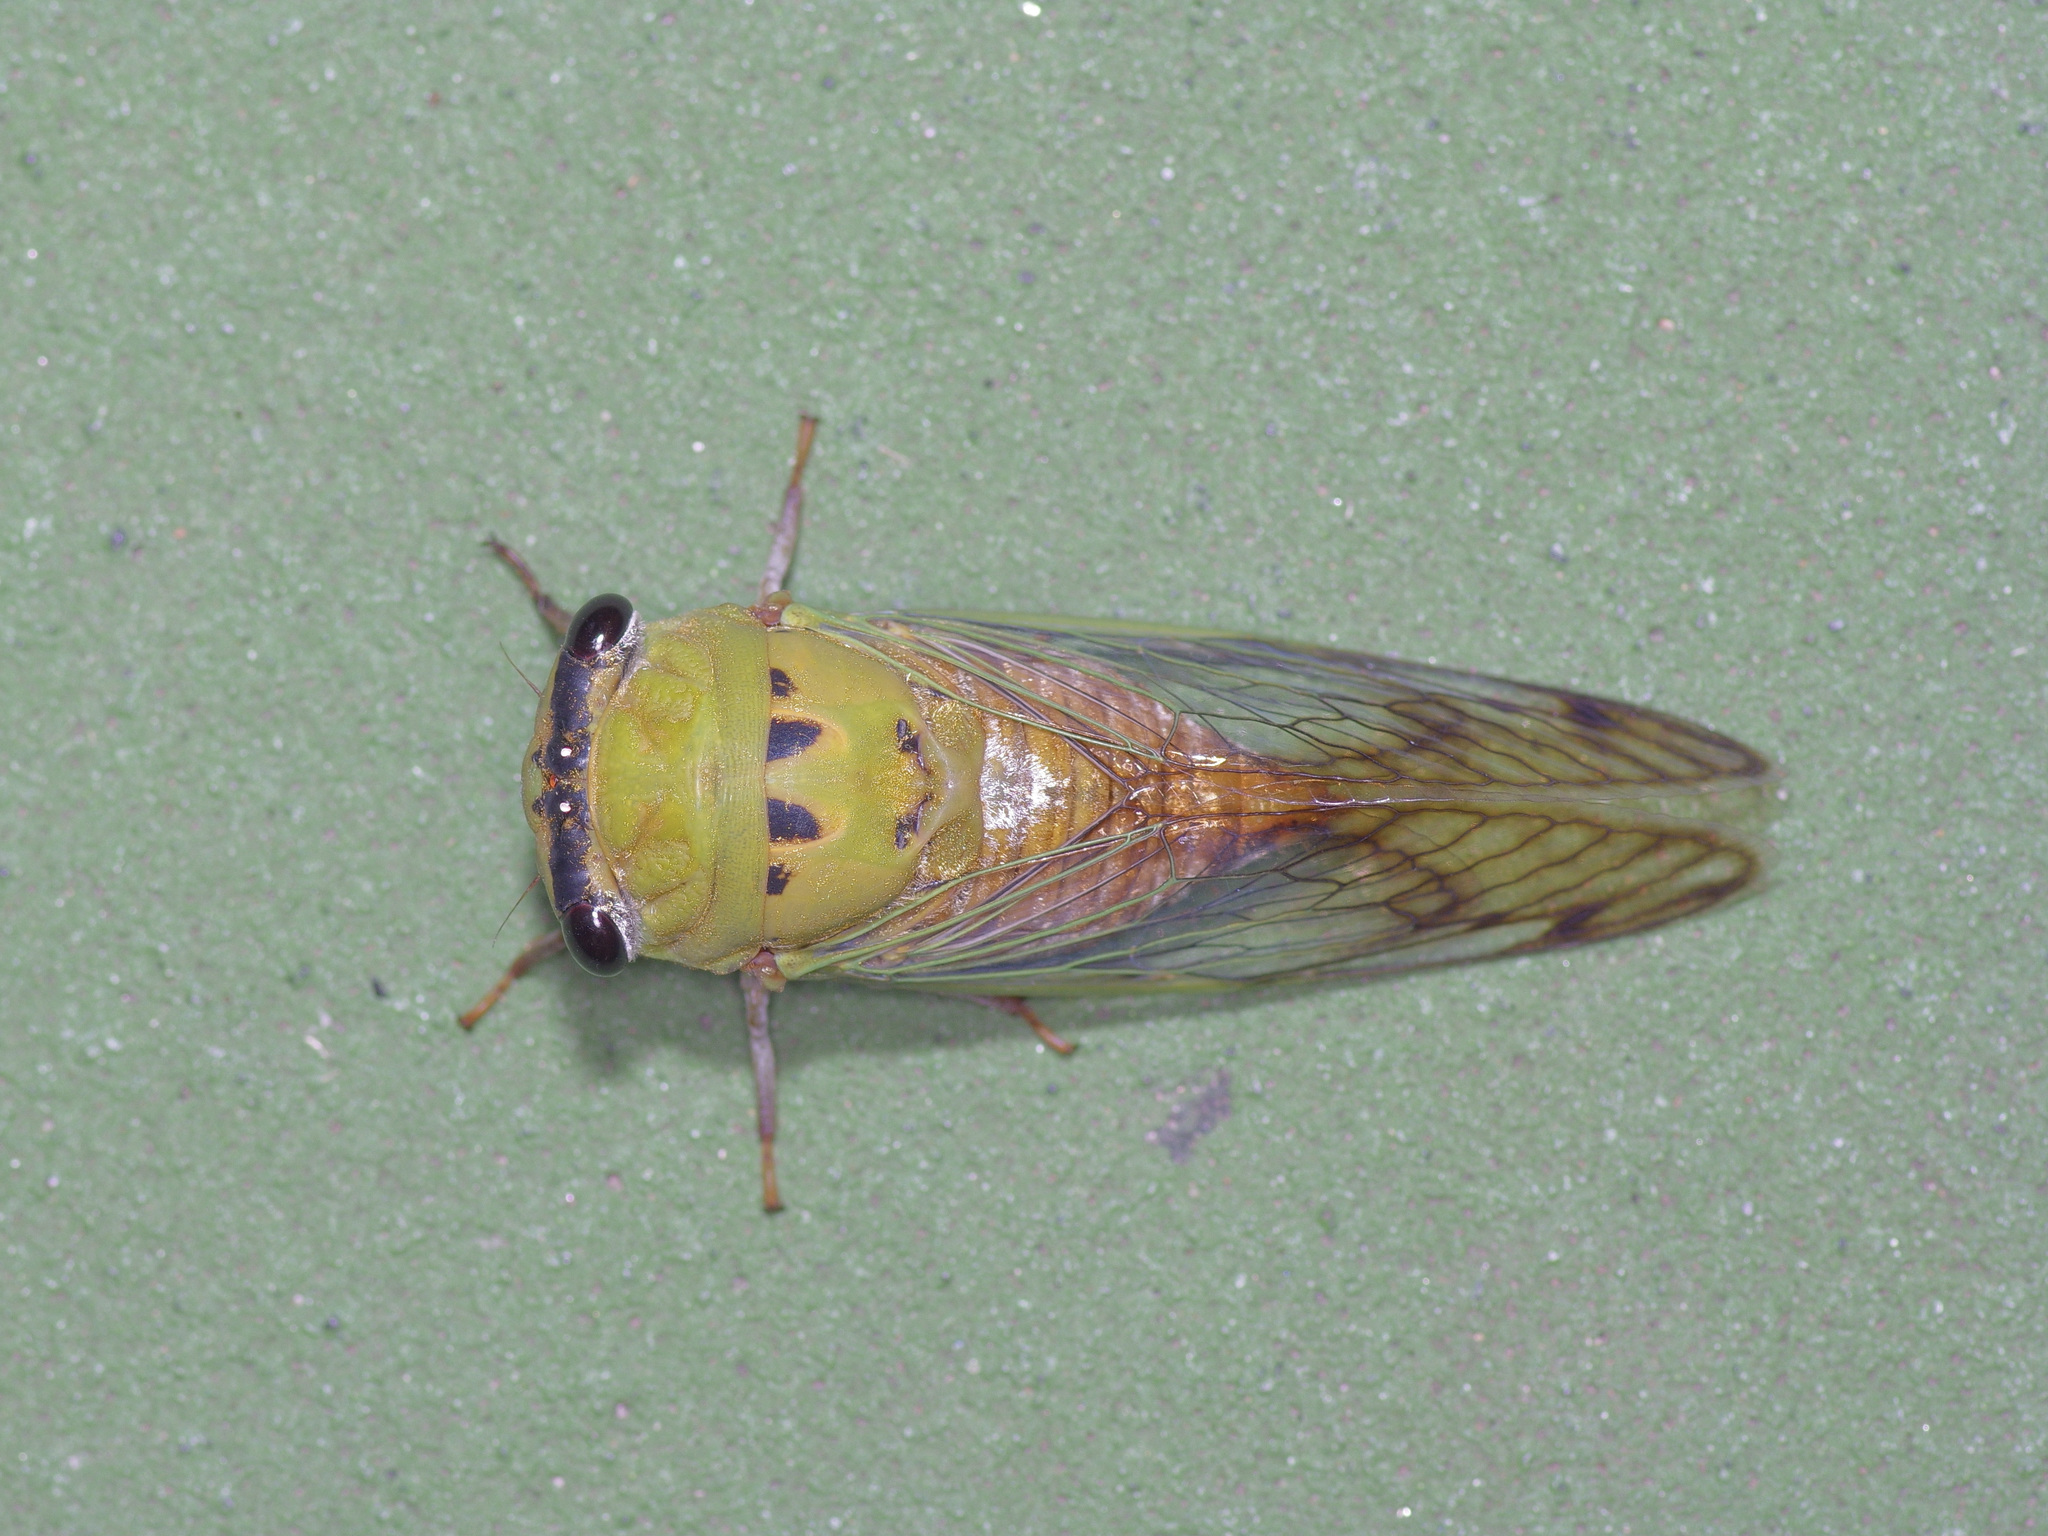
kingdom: Animalia
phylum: Arthropoda
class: Insecta
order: Hemiptera
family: Cicadidae
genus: Neotibicen
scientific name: Neotibicen superbus
